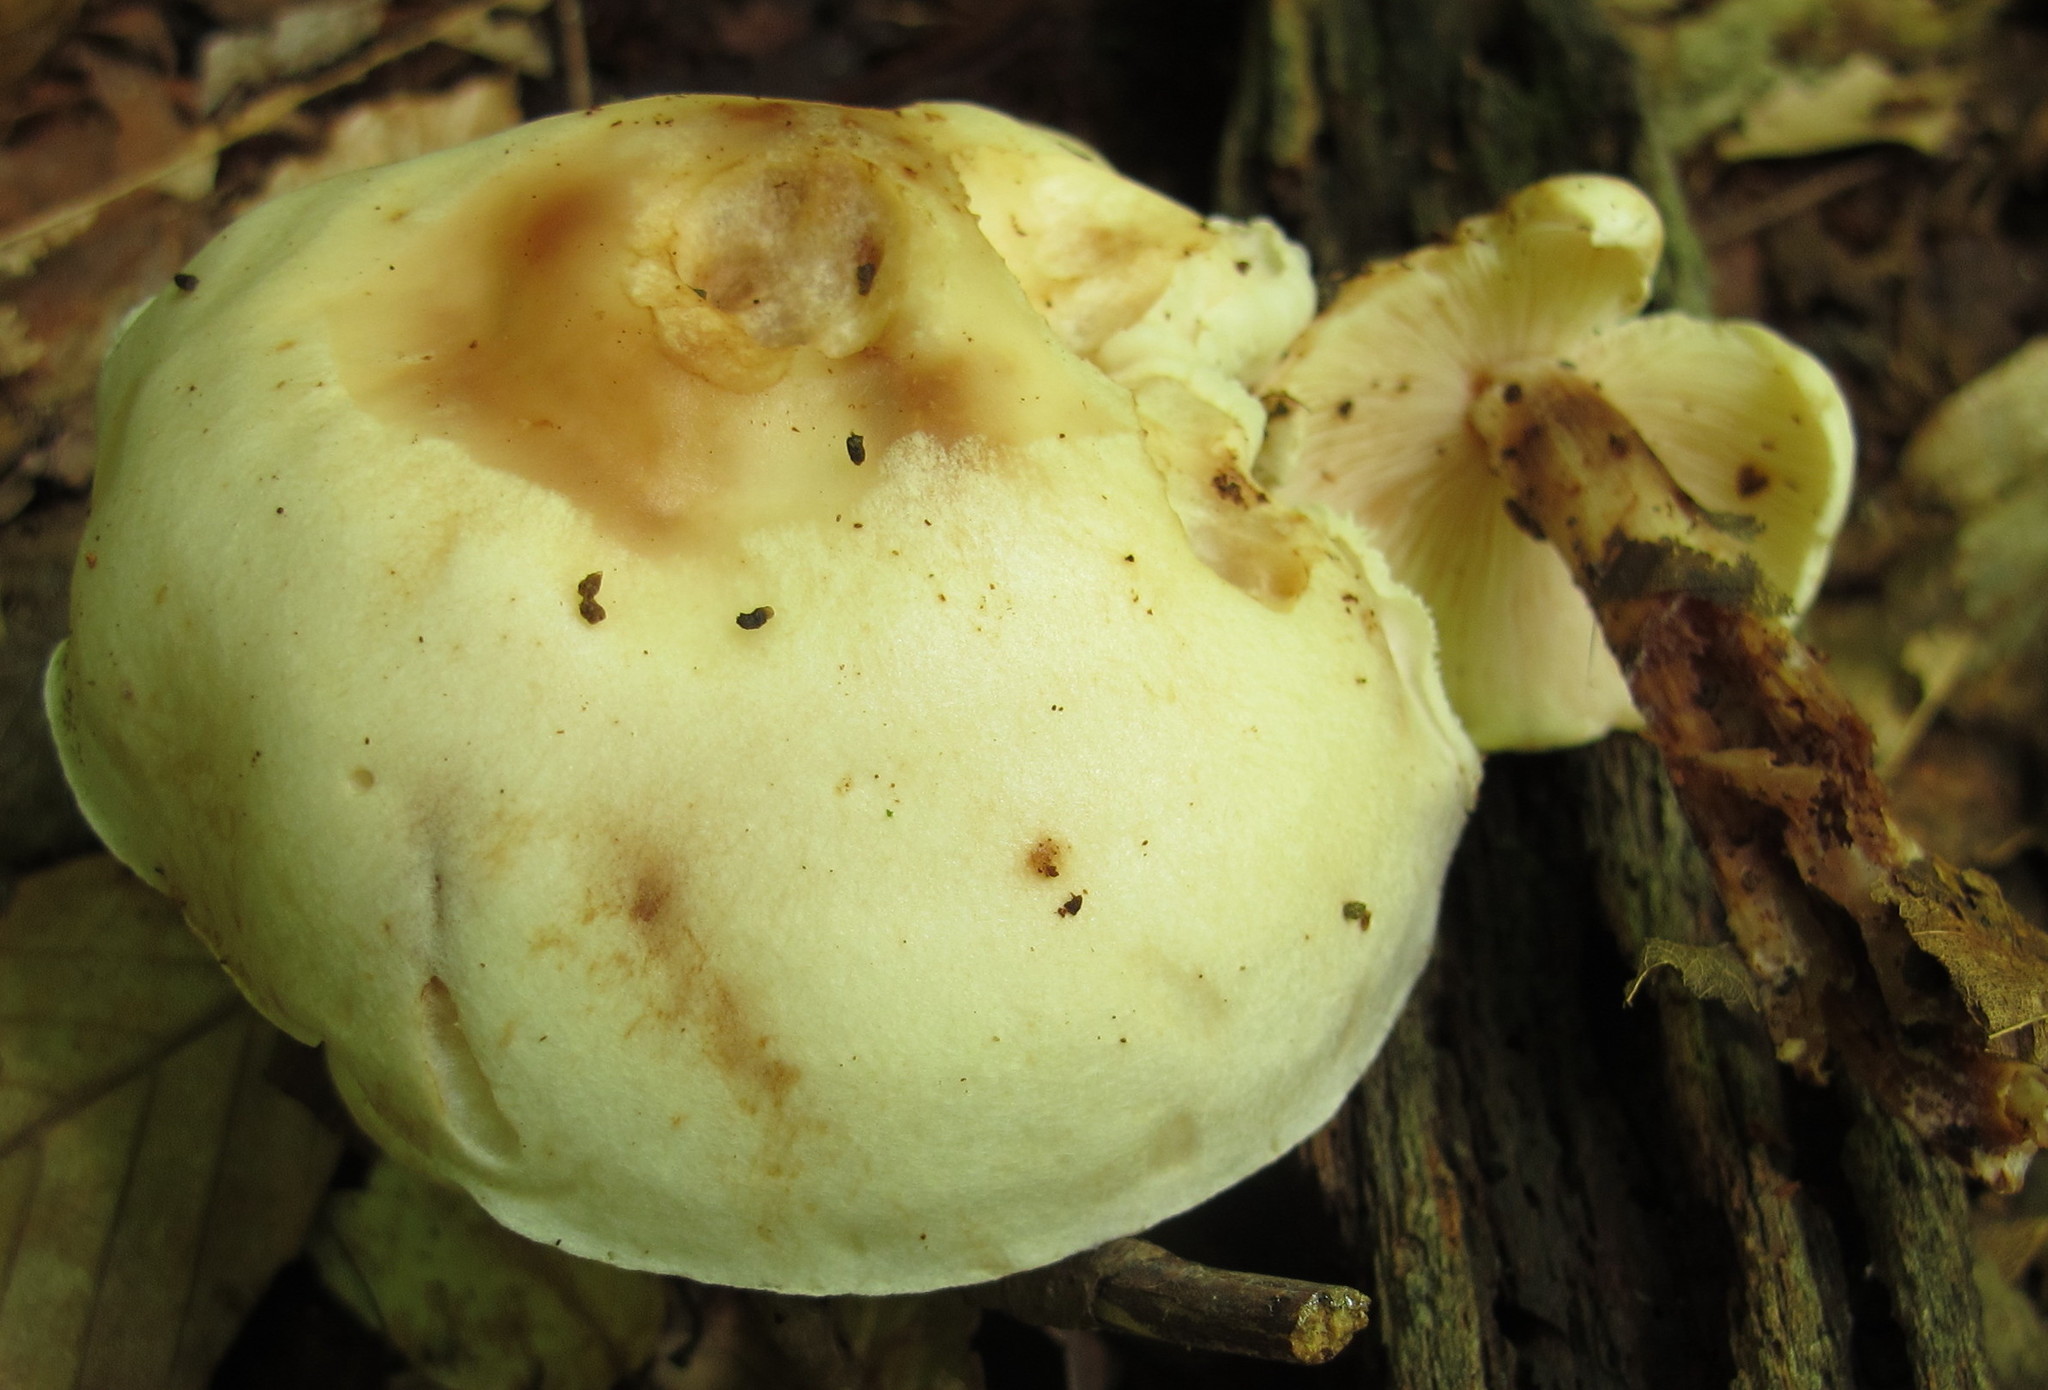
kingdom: Fungi
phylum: Basidiomycota
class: Agaricomycetes
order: Agaricales
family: Omphalotaceae
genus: Rhodocollybia
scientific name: Rhodocollybia maculata
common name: Spotted tough-shank
